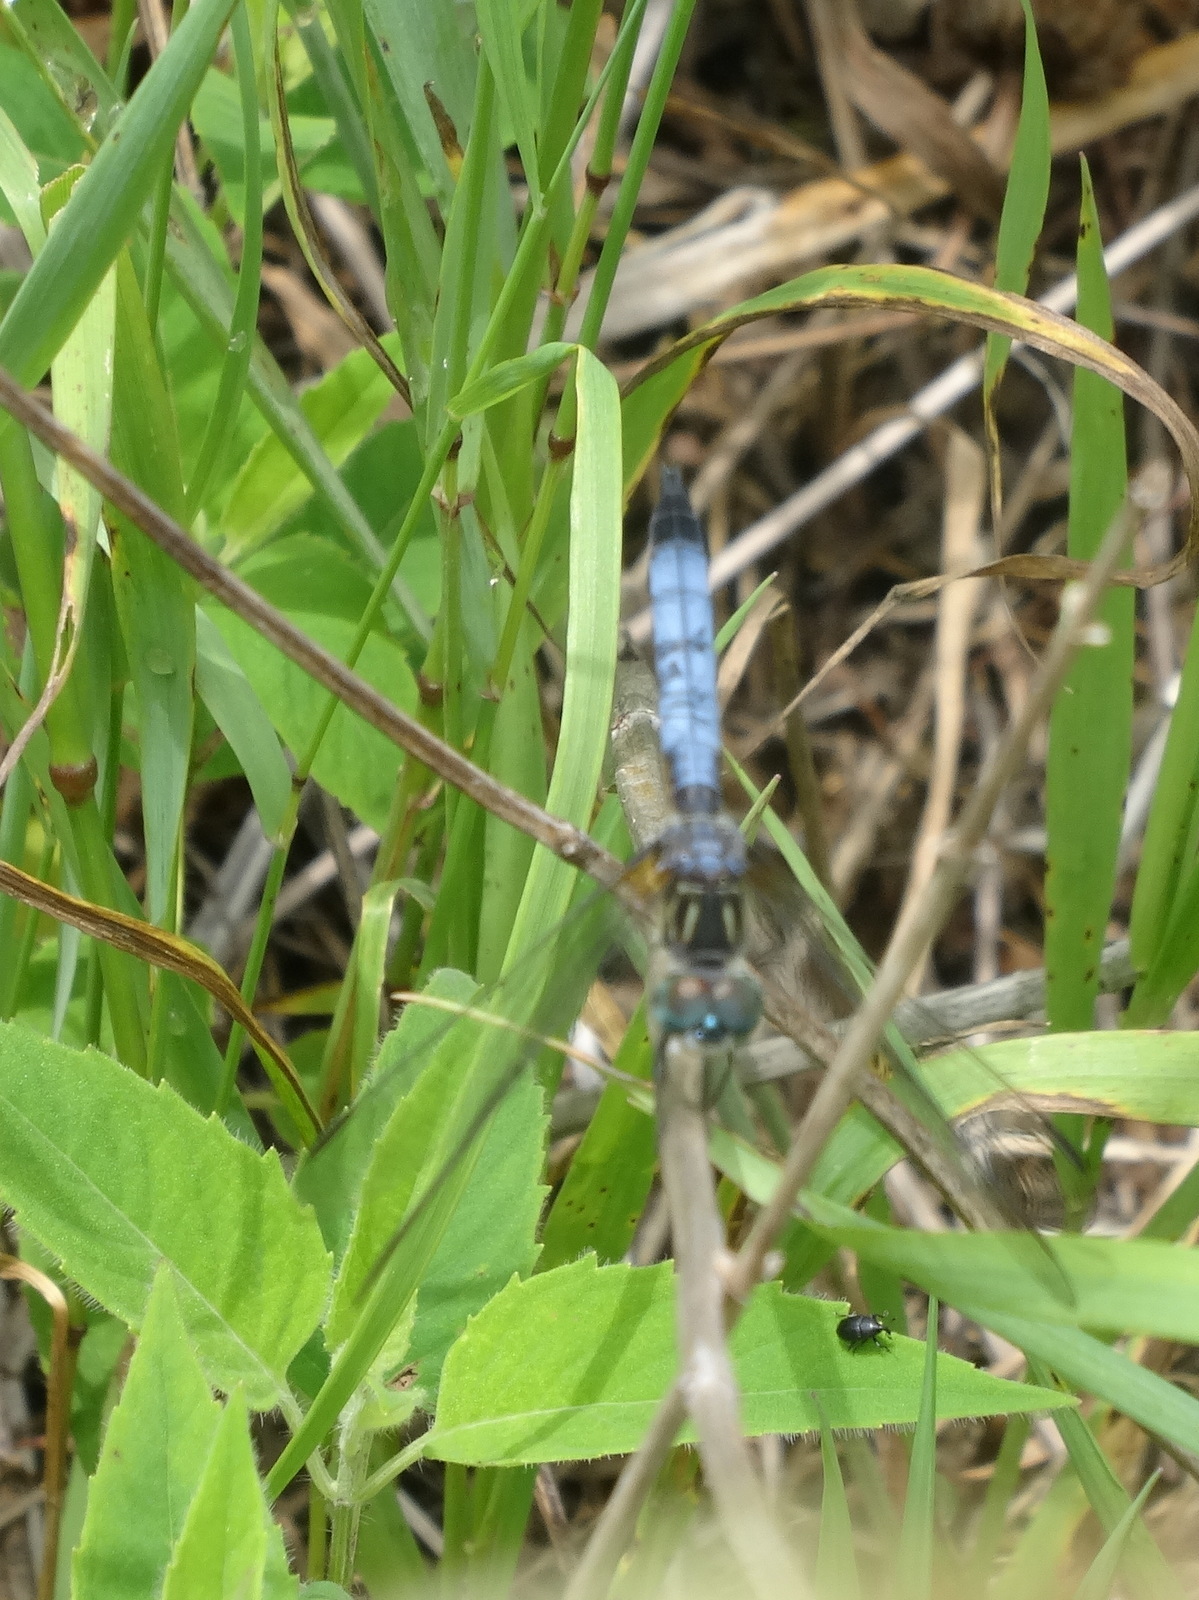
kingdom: Animalia
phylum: Arthropoda
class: Insecta
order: Odonata
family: Libellulidae
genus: Pachydiplax
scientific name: Pachydiplax longipennis
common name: Blue dasher
